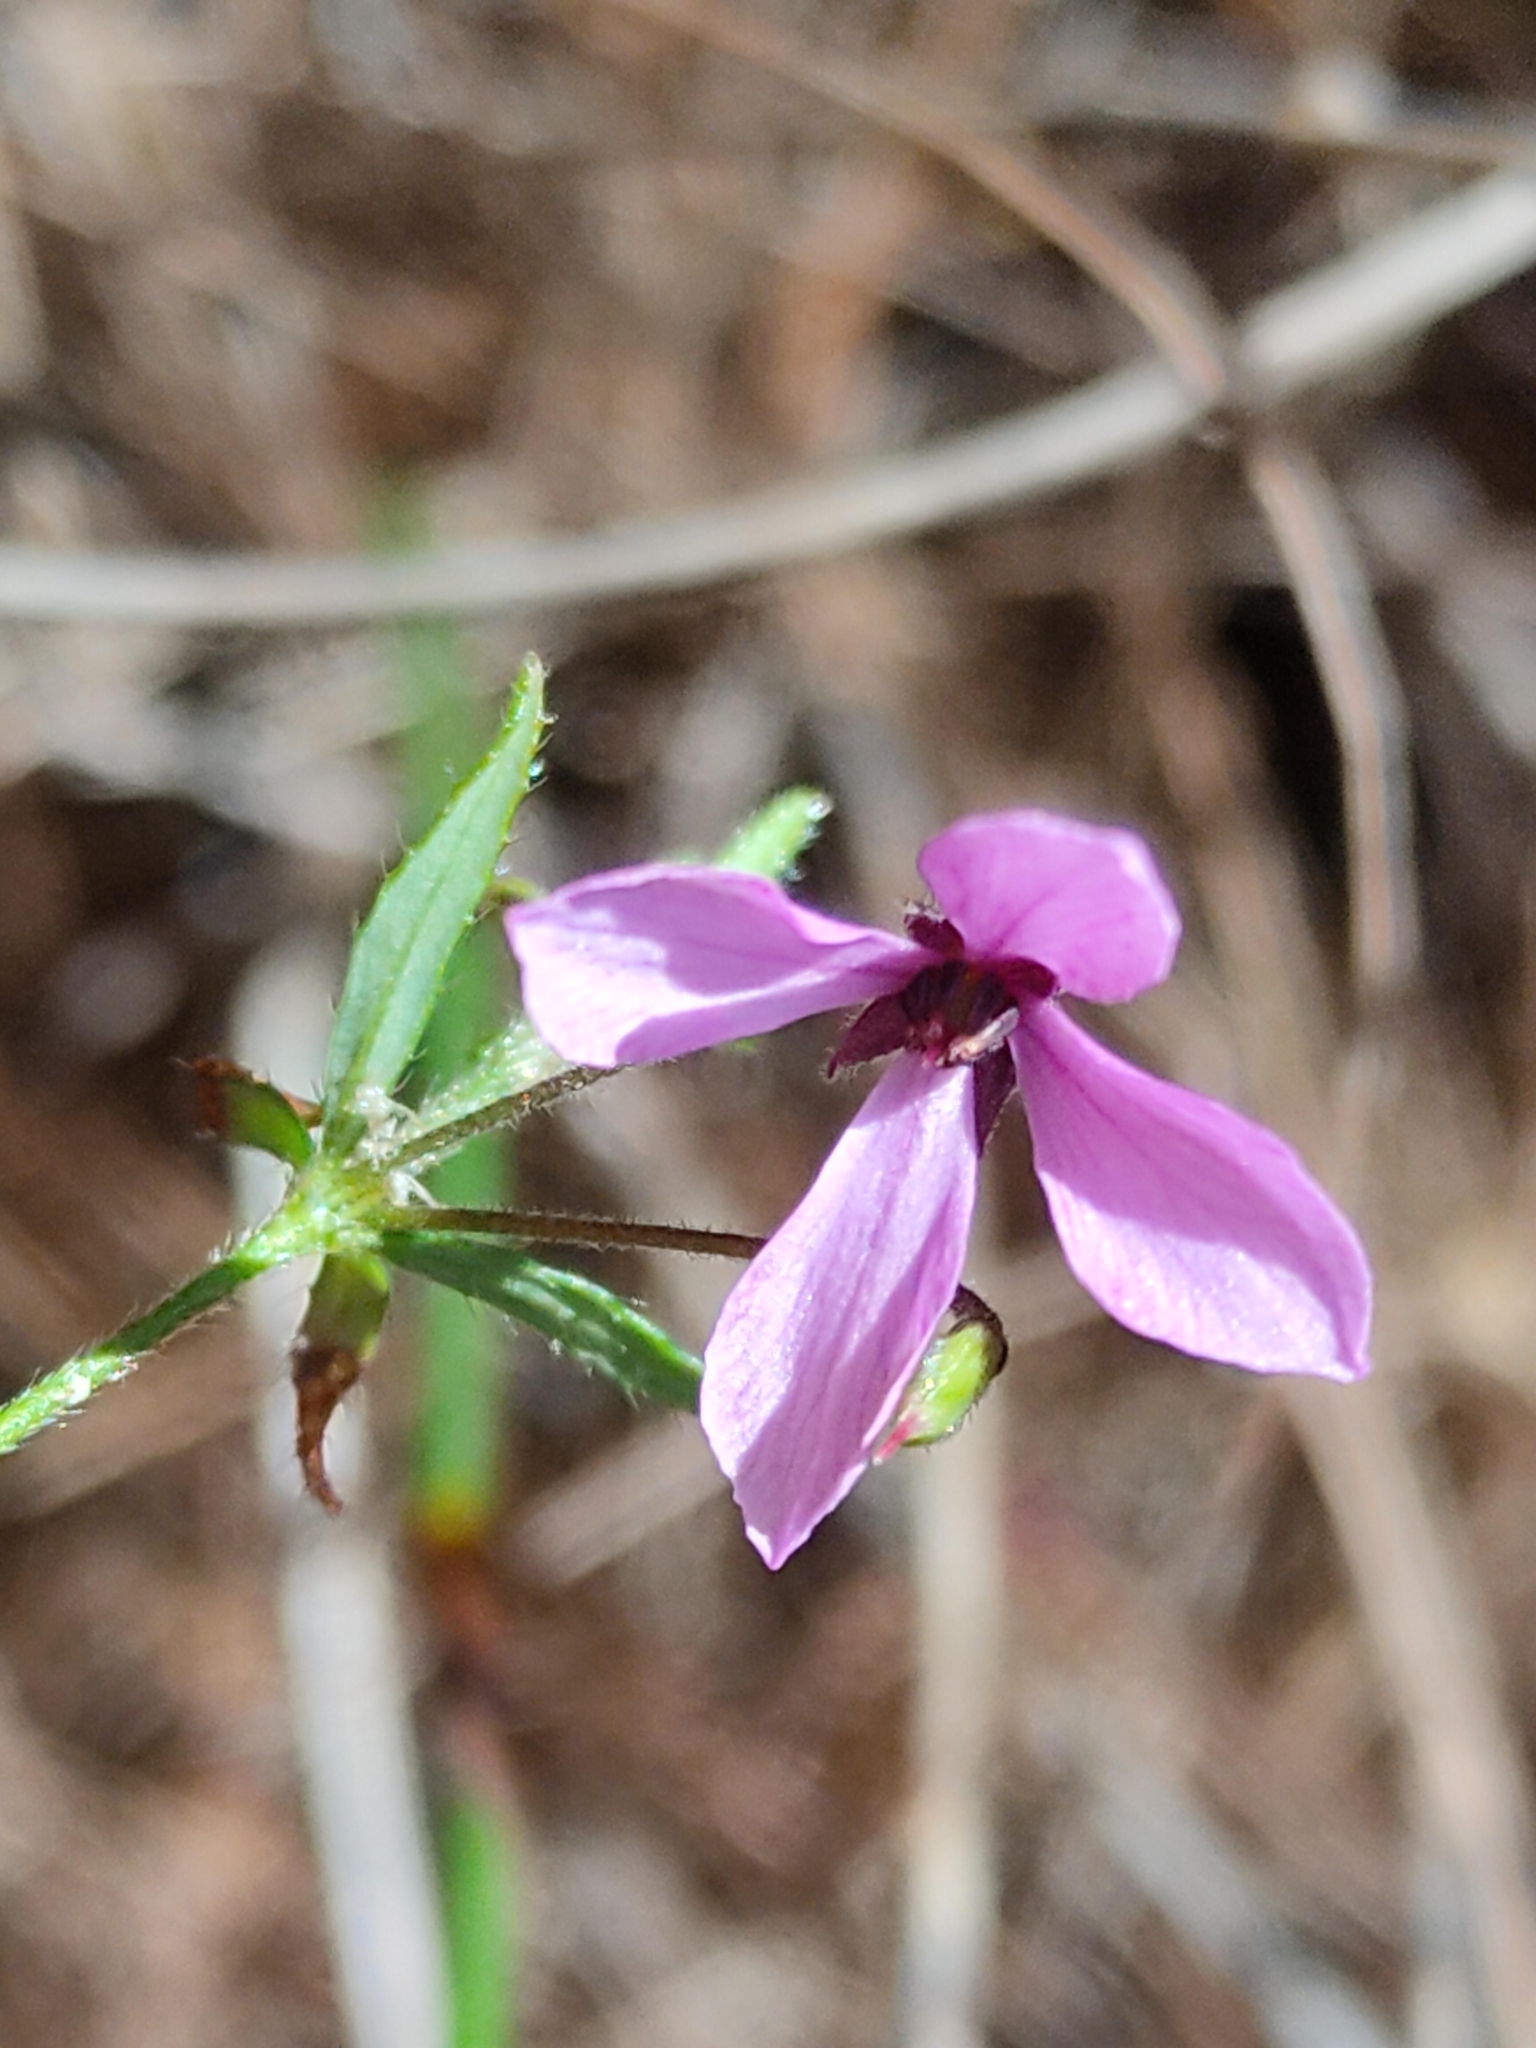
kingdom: Plantae
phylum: Tracheophyta
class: Magnoliopsida
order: Oxalidales
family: Elaeocarpaceae
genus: Tetratheca
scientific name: Tetratheca thymifolia
